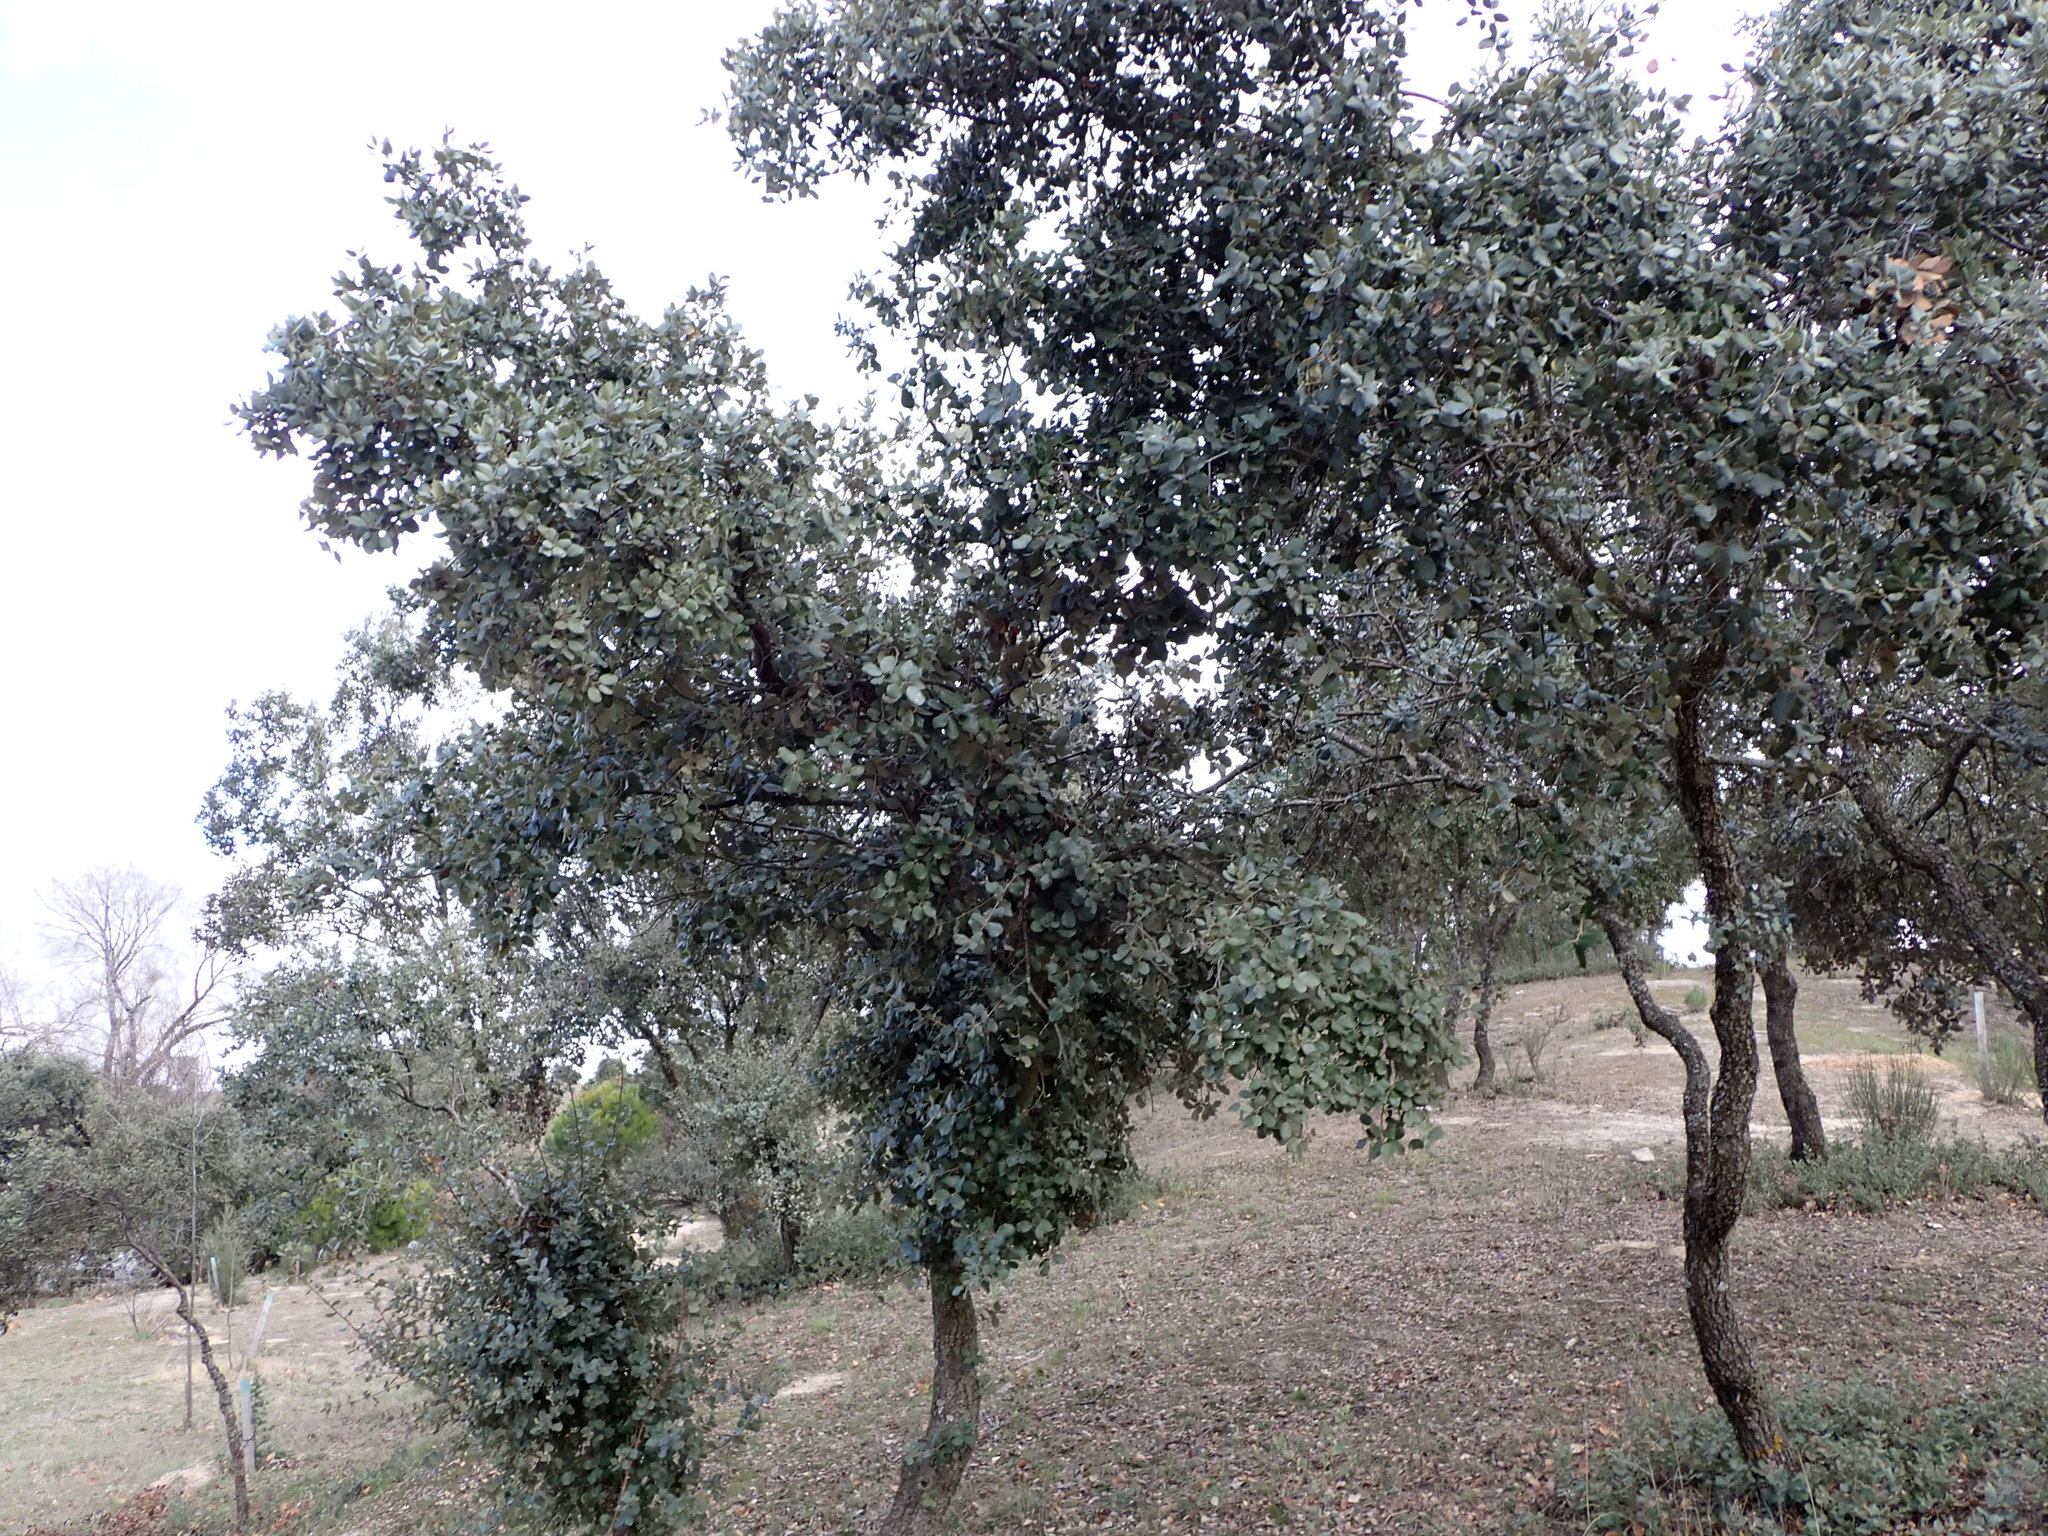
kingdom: Plantae
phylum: Tracheophyta
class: Magnoliopsida
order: Fagales
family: Fagaceae
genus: Quercus
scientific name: Quercus rotundifolia
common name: Holm oak
